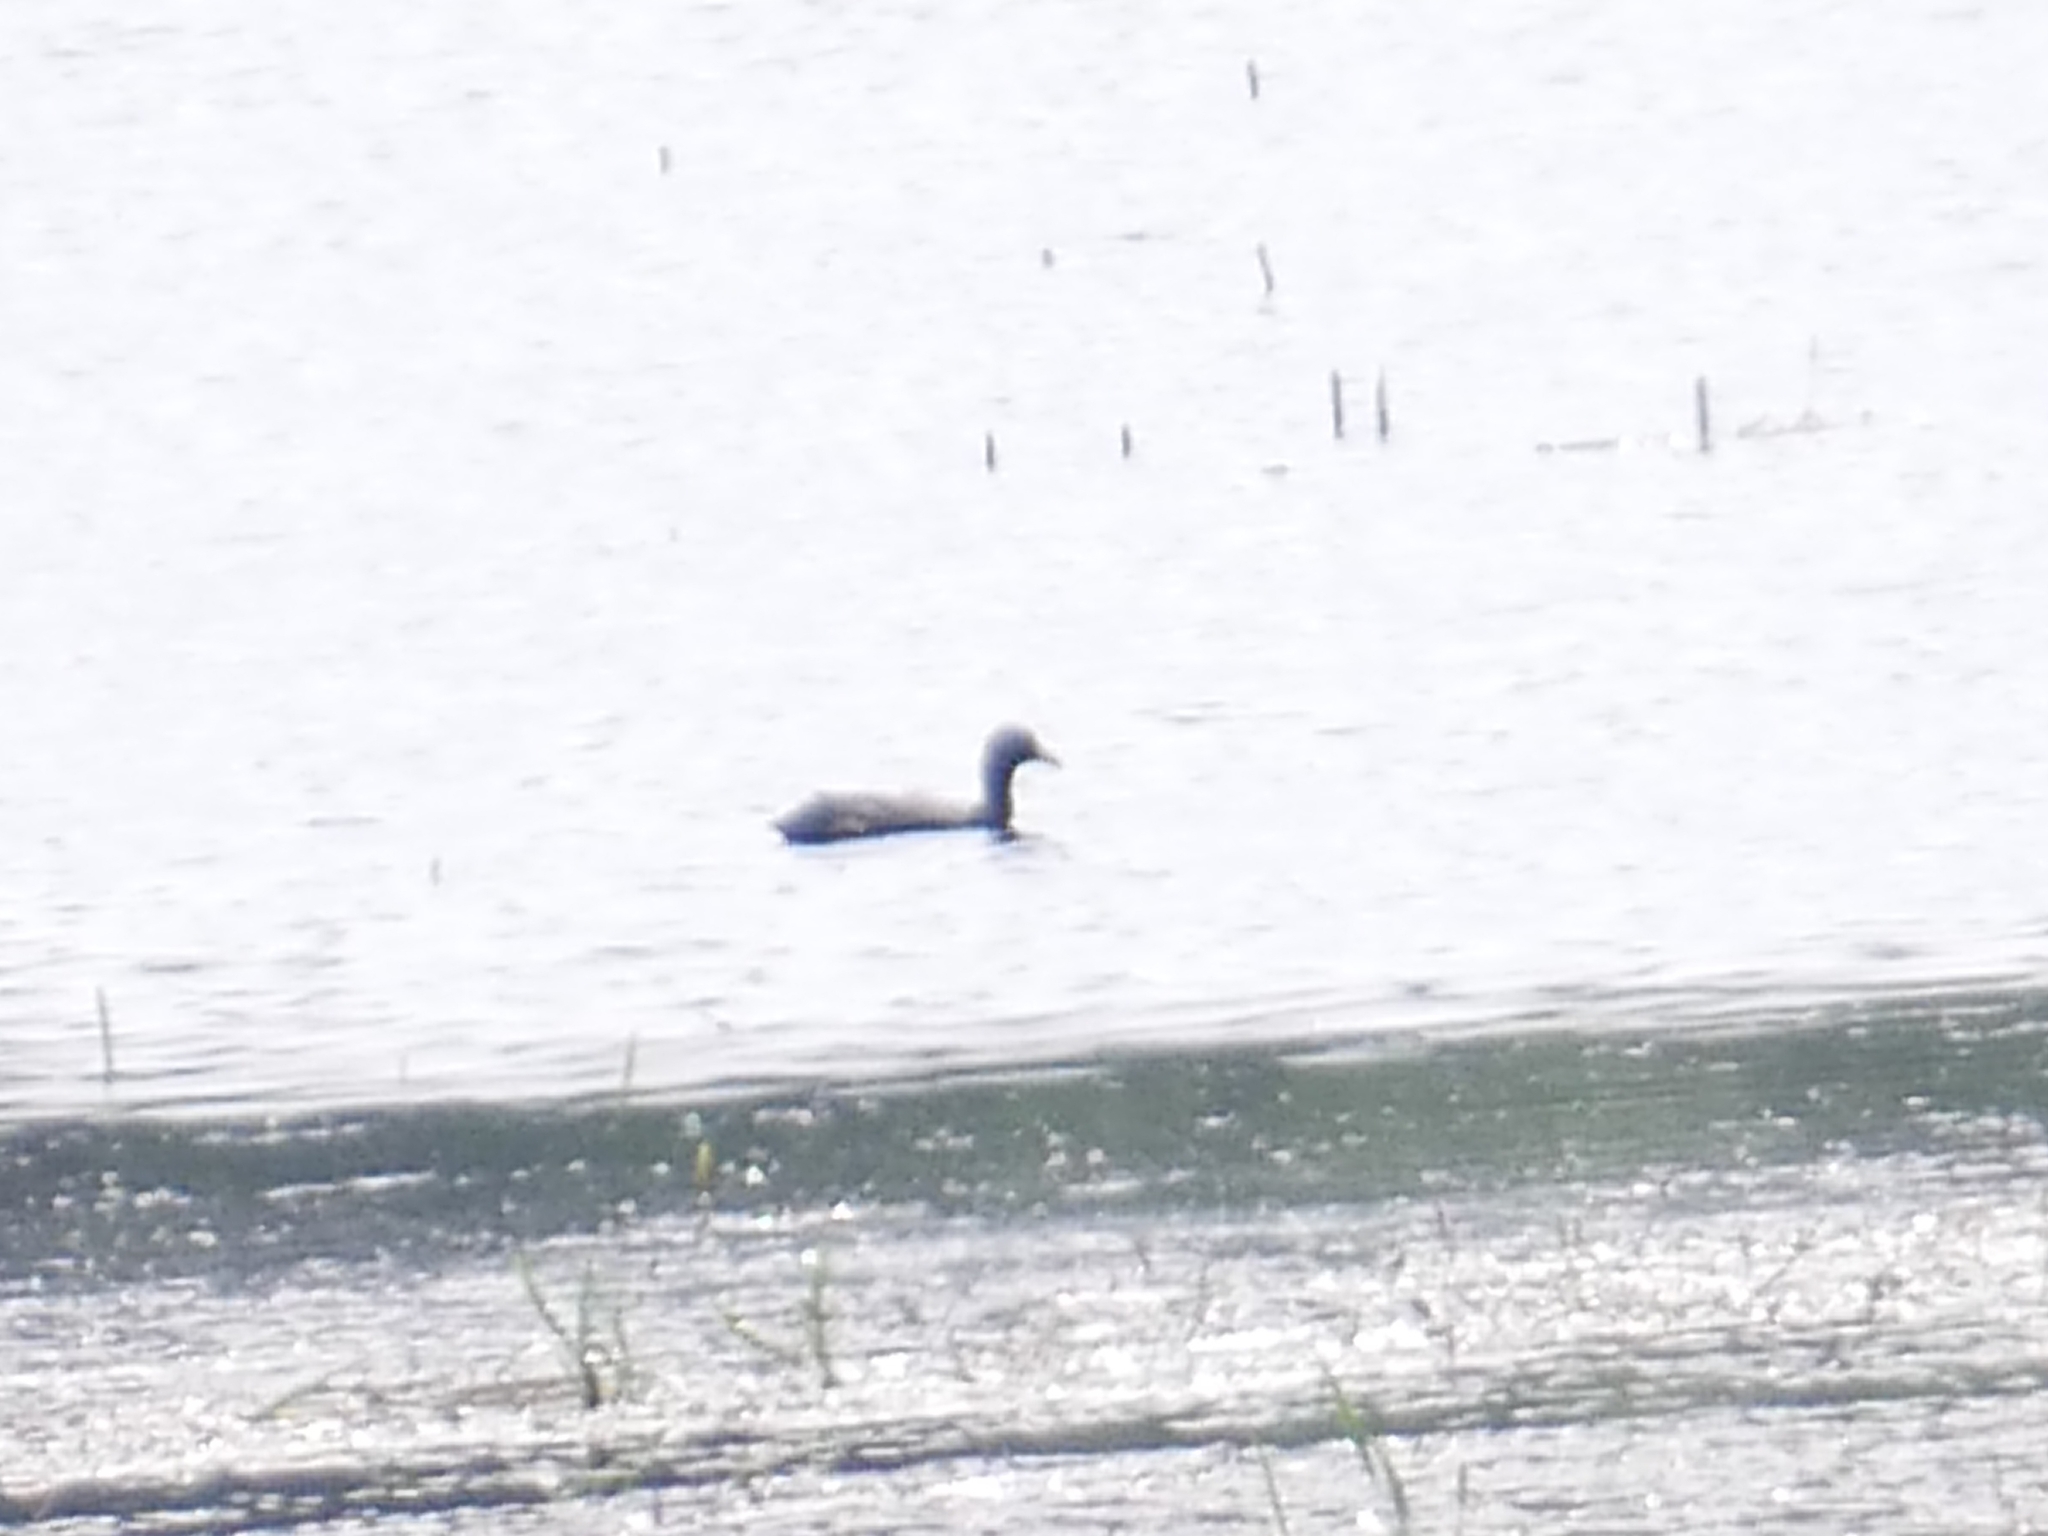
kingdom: Animalia
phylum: Chordata
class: Aves
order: Gruiformes
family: Rallidae
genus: Fulica
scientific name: Fulica atra
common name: Eurasian coot
